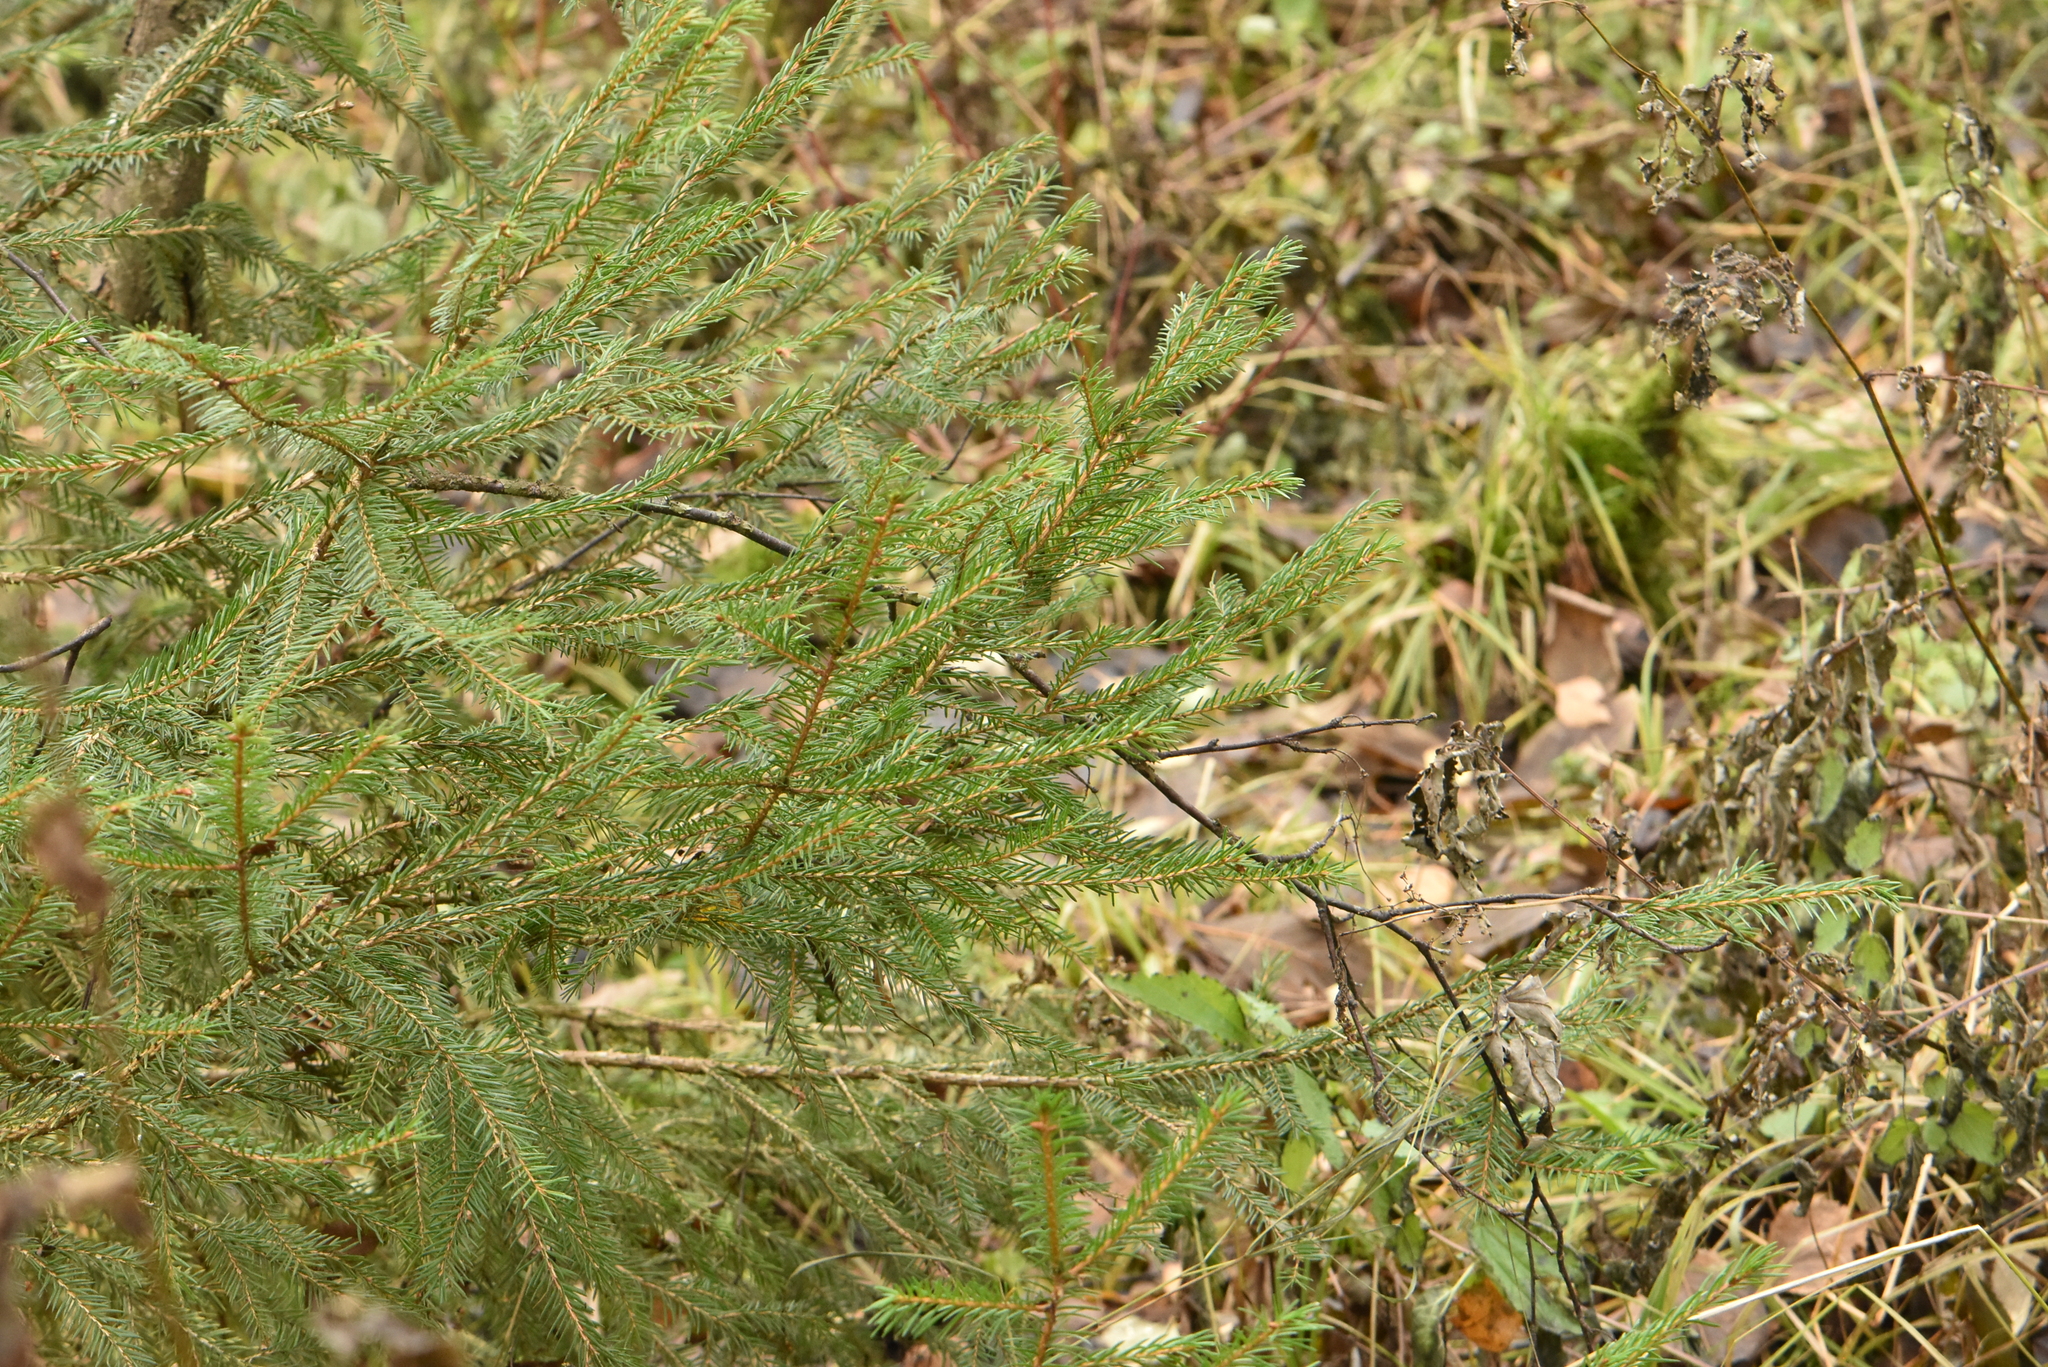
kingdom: Plantae
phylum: Tracheophyta
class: Pinopsida
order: Pinales
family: Pinaceae
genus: Picea
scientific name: Picea abies
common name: Norway spruce
